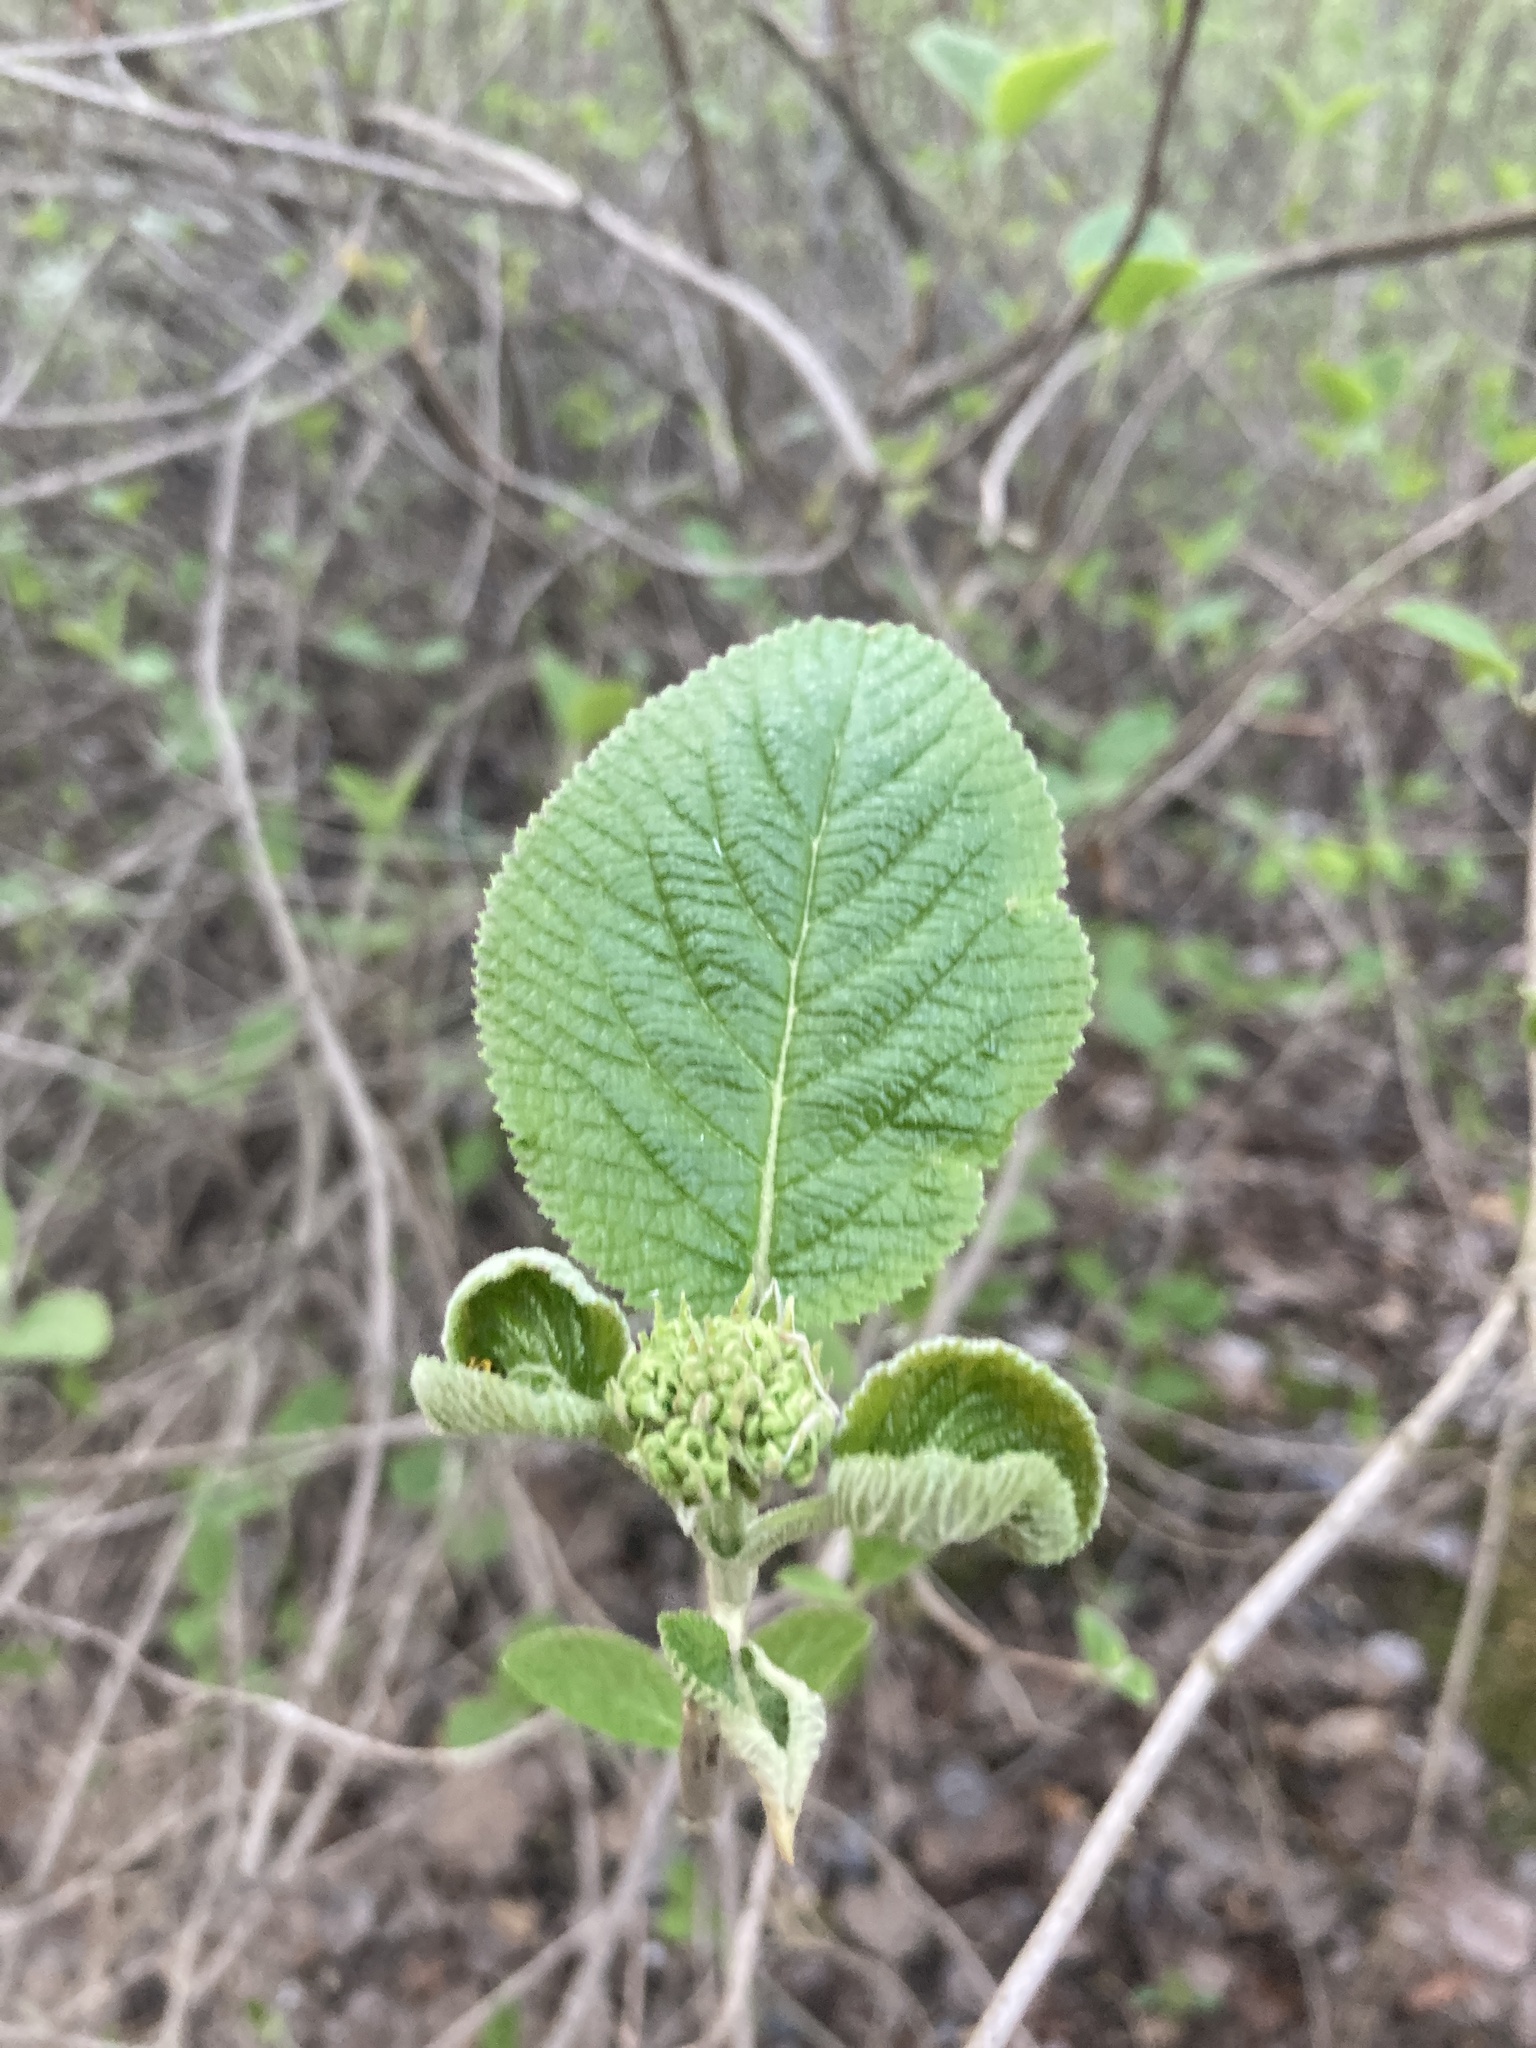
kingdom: Plantae
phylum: Tracheophyta
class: Magnoliopsida
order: Dipsacales
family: Viburnaceae
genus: Viburnum
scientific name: Viburnum lantana
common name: Wayfaring tree
